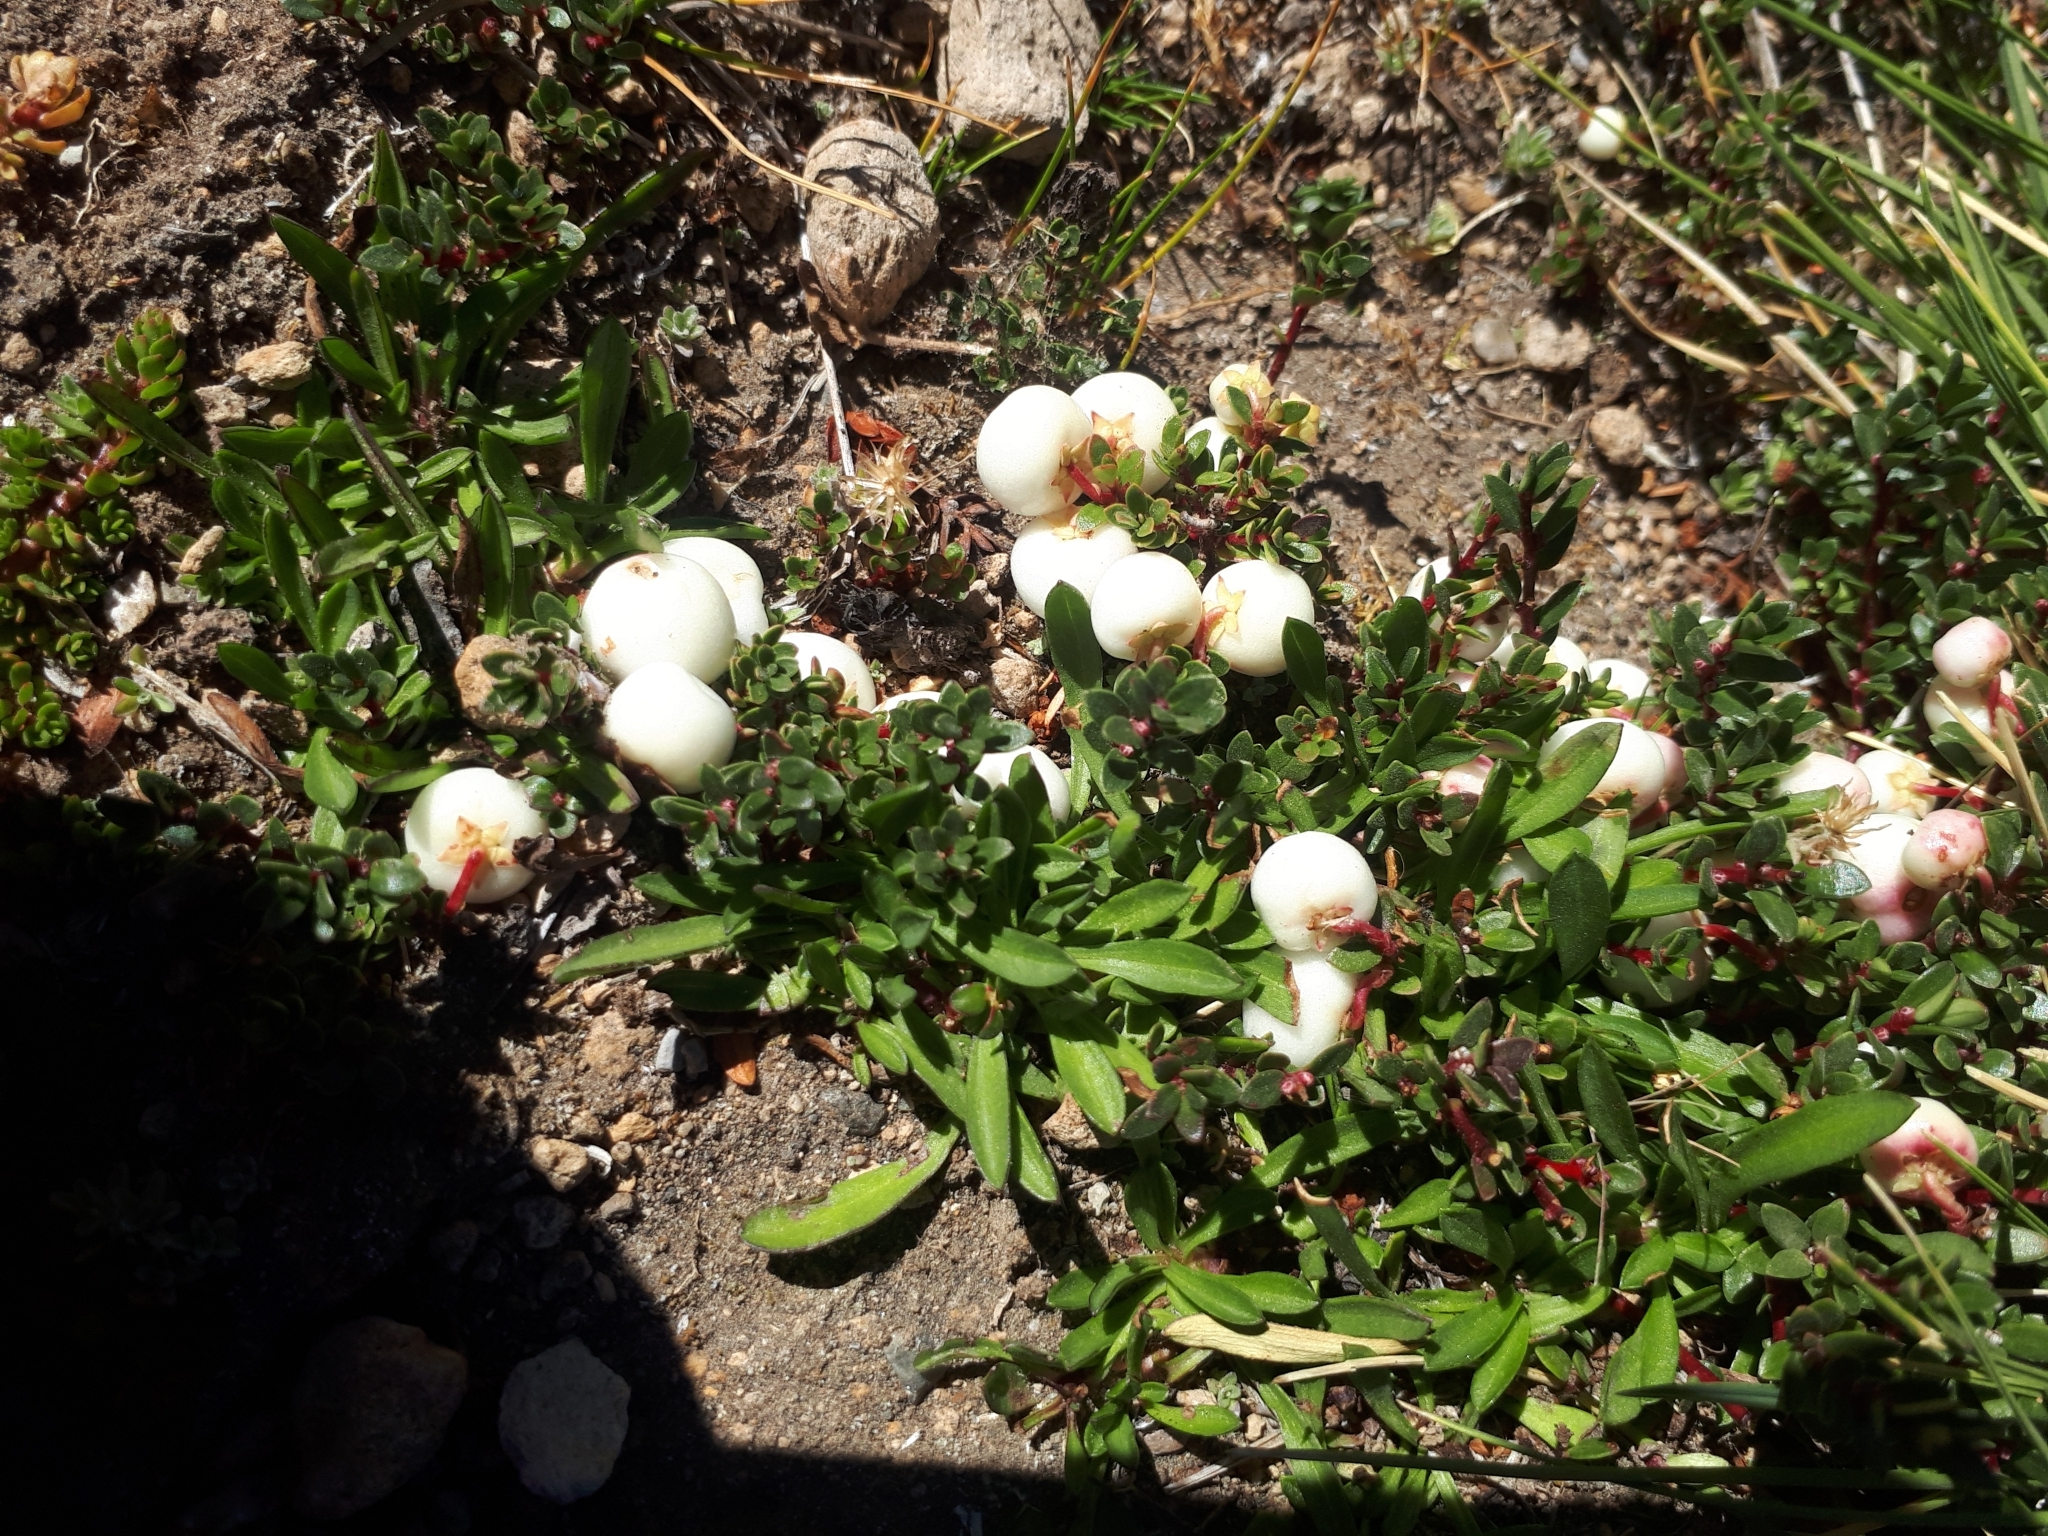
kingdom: Plantae
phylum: Tracheophyta
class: Magnoliopsida
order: Ericales
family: Ericaceae
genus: Gaultheria
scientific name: Gaultheria pumila
